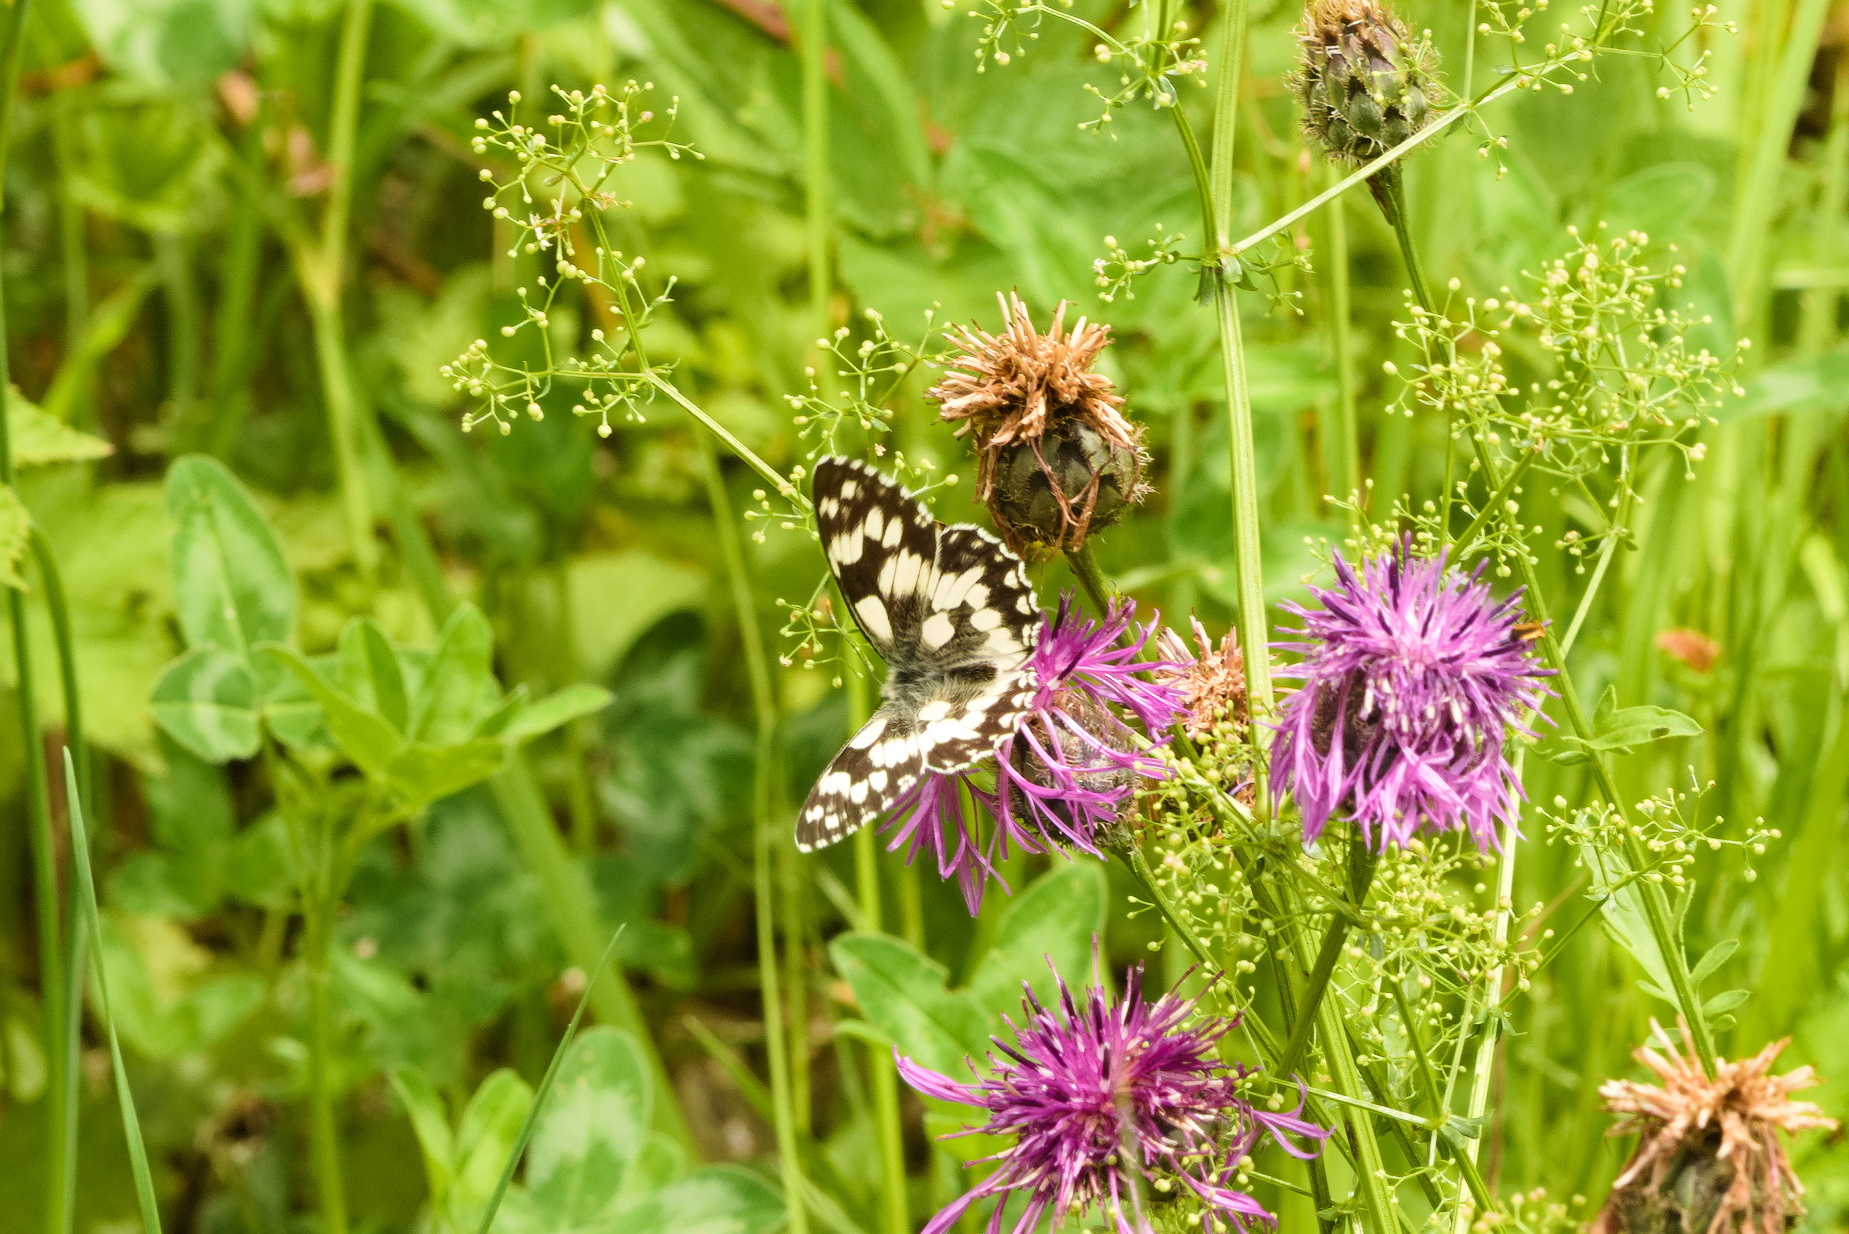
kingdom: Animalia
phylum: Arthropoda
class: Insecta
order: Lepidoptera
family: Nymphalidae
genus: Melanargia
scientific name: Melanargia galathea
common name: Marbled white
